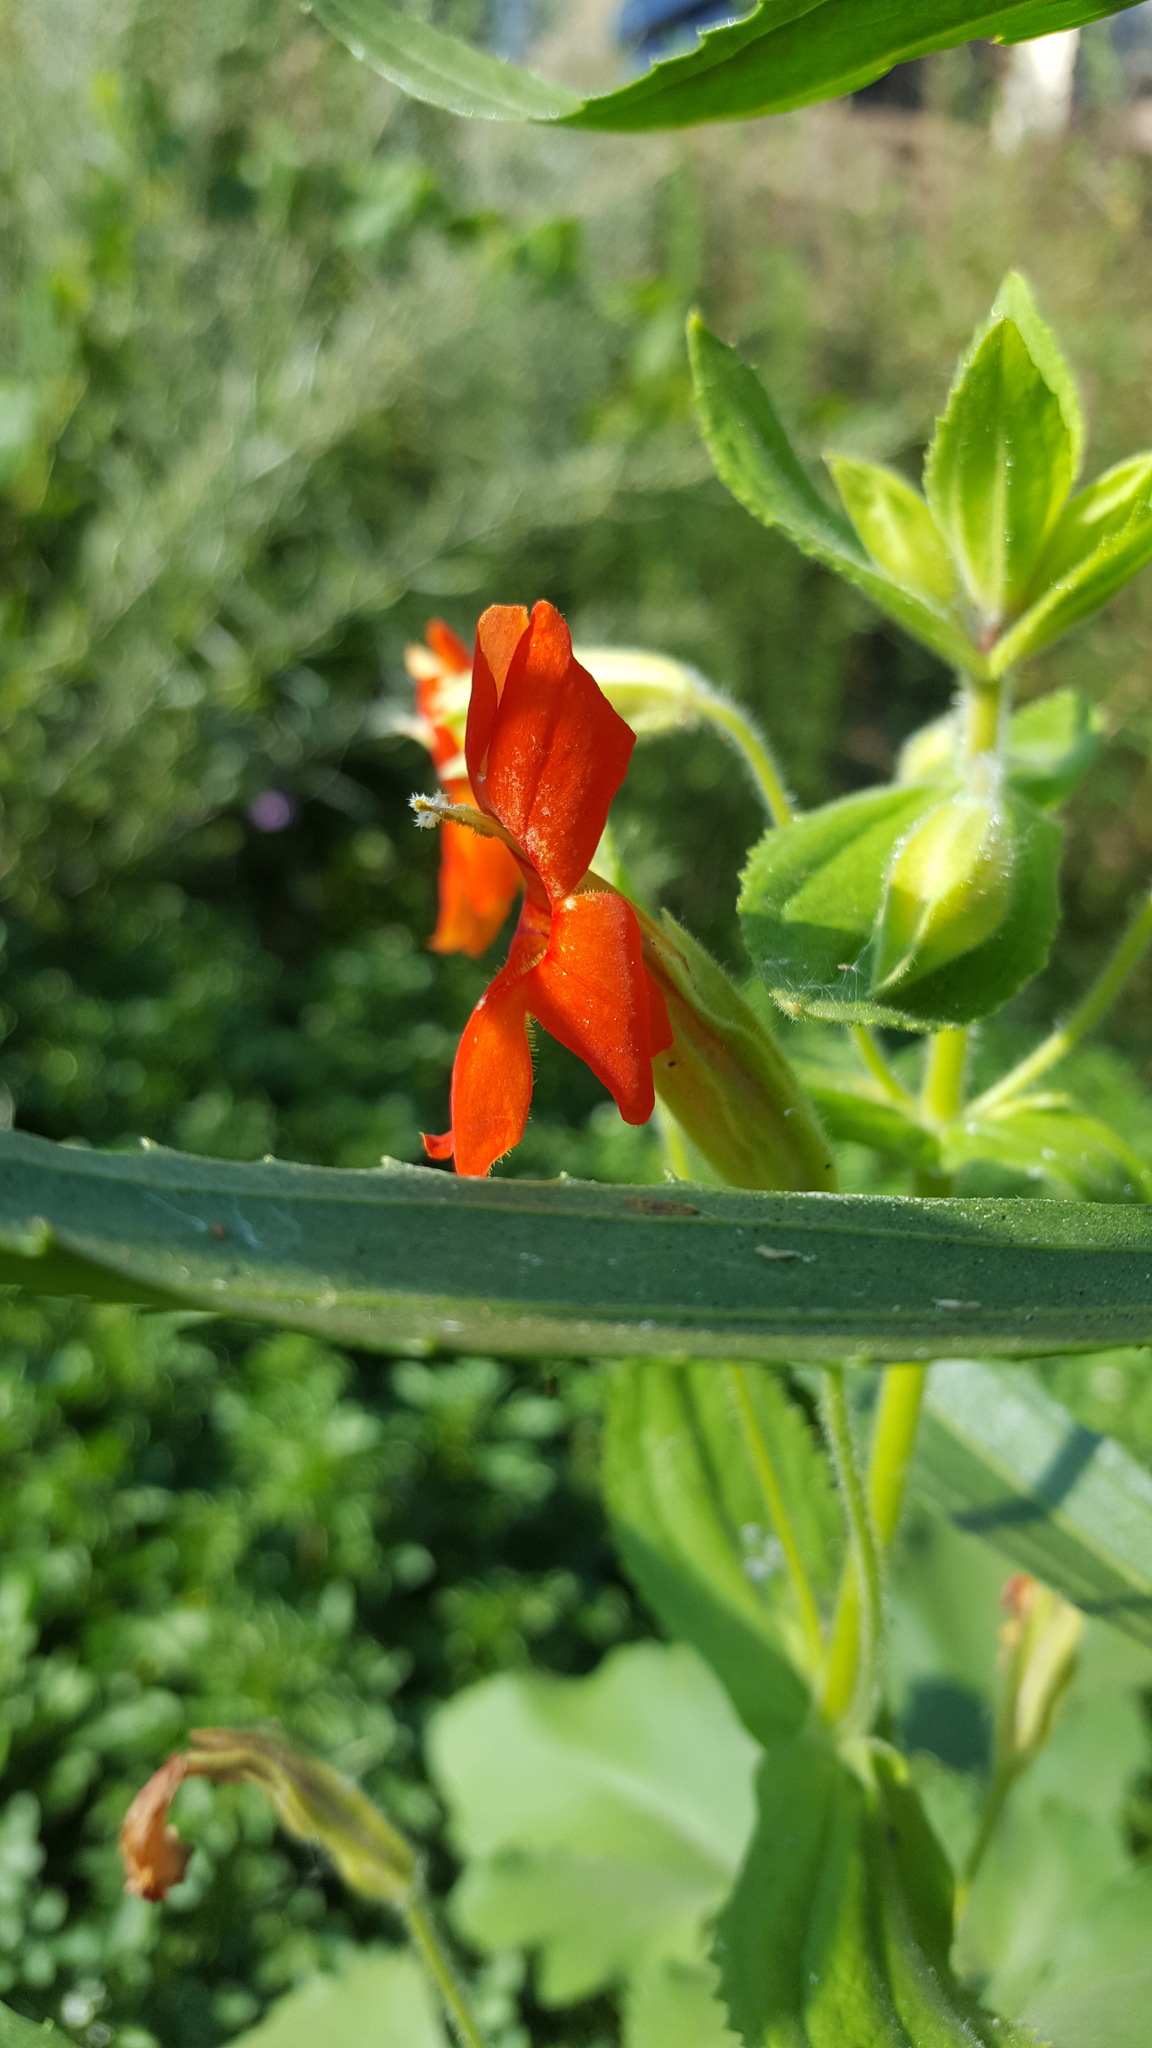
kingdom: Plantae
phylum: Tracheophyta
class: Magnoliopsida
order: Lamiales
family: Phrymaceae
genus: Erythranthe
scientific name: Erythranthe cardinalis
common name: Scarlet monkey-flower
